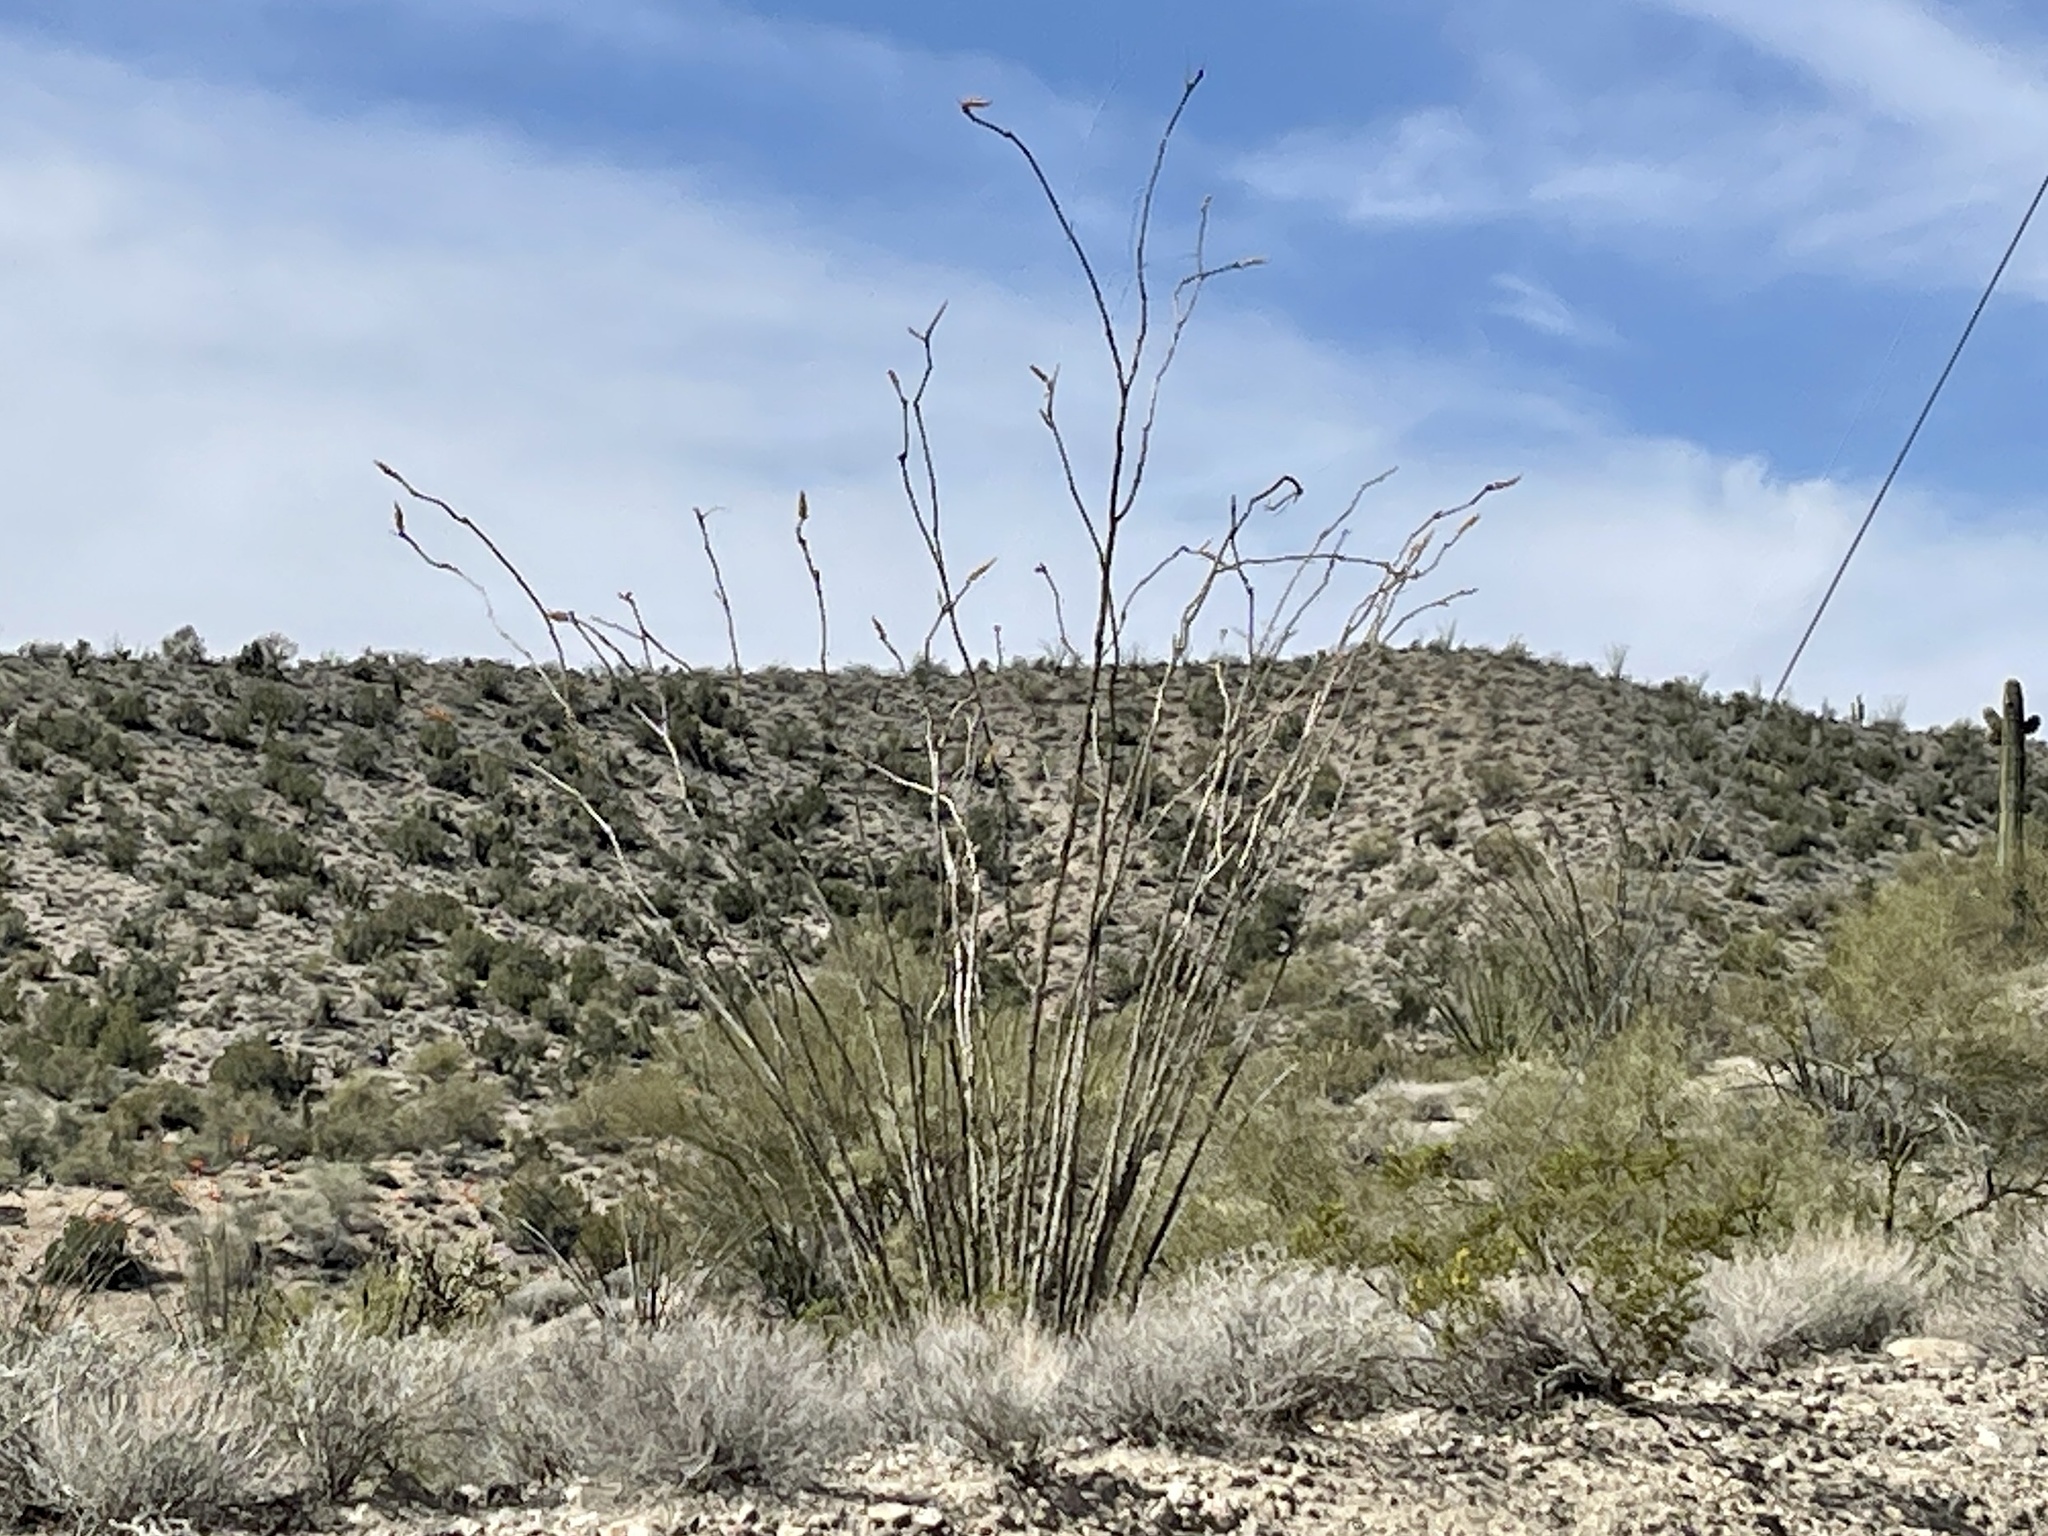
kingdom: Plantae
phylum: Tracheophyta
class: Magnoliopsida
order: Ericales
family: Fouquieriaceae
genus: Fouquieria
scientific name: Fouquieria splendens
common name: Vine-cactus
